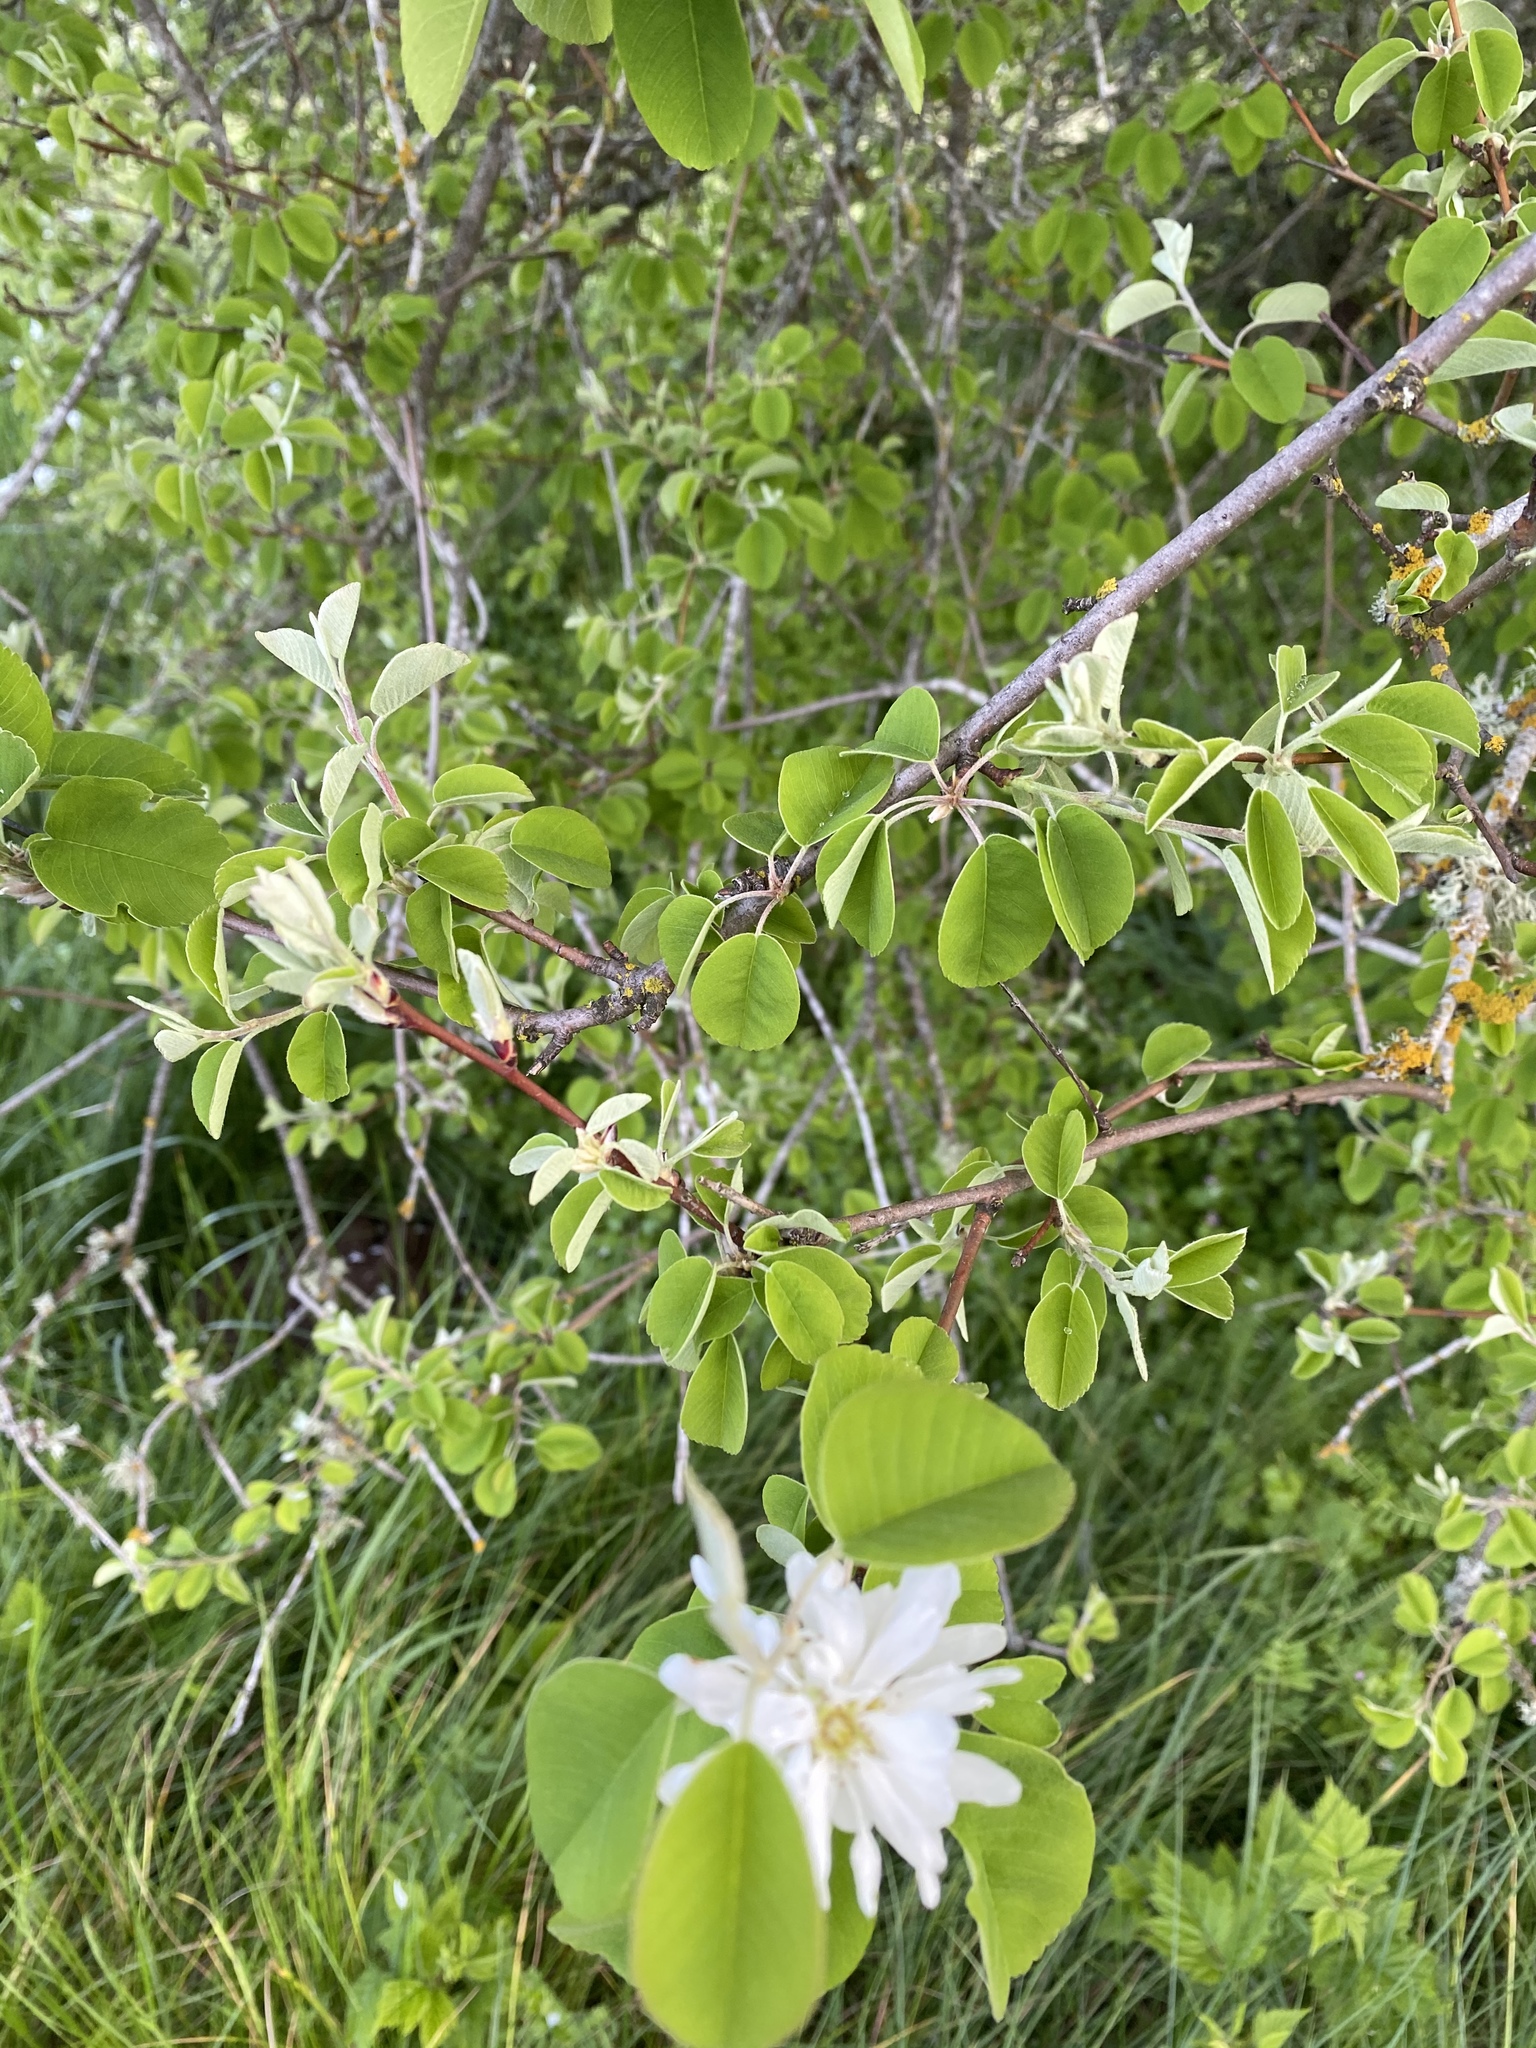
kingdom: Plantae
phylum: Tracheophyta
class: Magnoliopsida
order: Rosales
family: Rosaceae
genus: Amelanchier
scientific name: Amelanchier alnifolia
